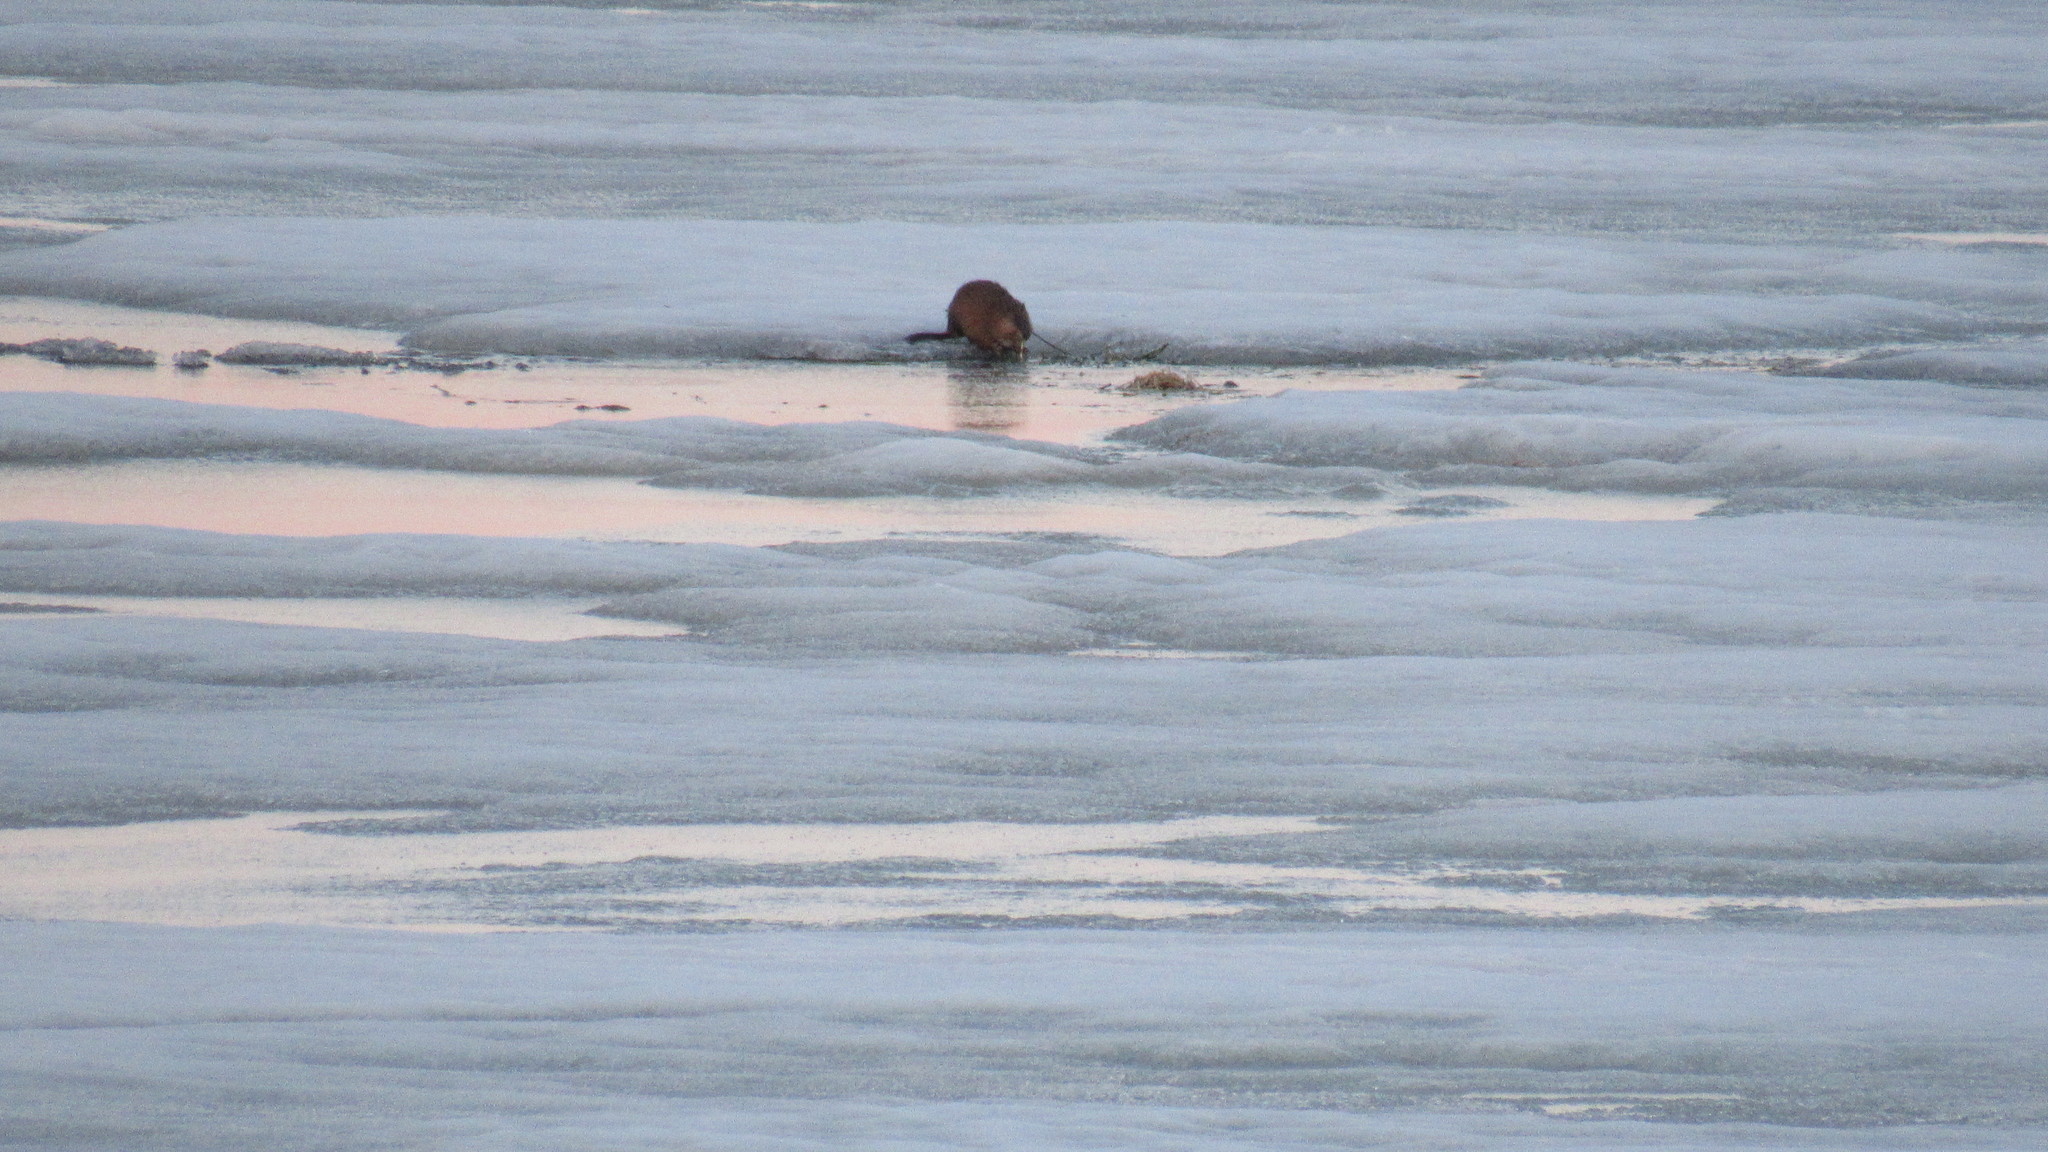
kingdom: Animalia
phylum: Chordata
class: Mammalia
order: Rodentia
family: Cricetidae
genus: Ondatra
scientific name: Ondatra zibethicus
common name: Muskrat
